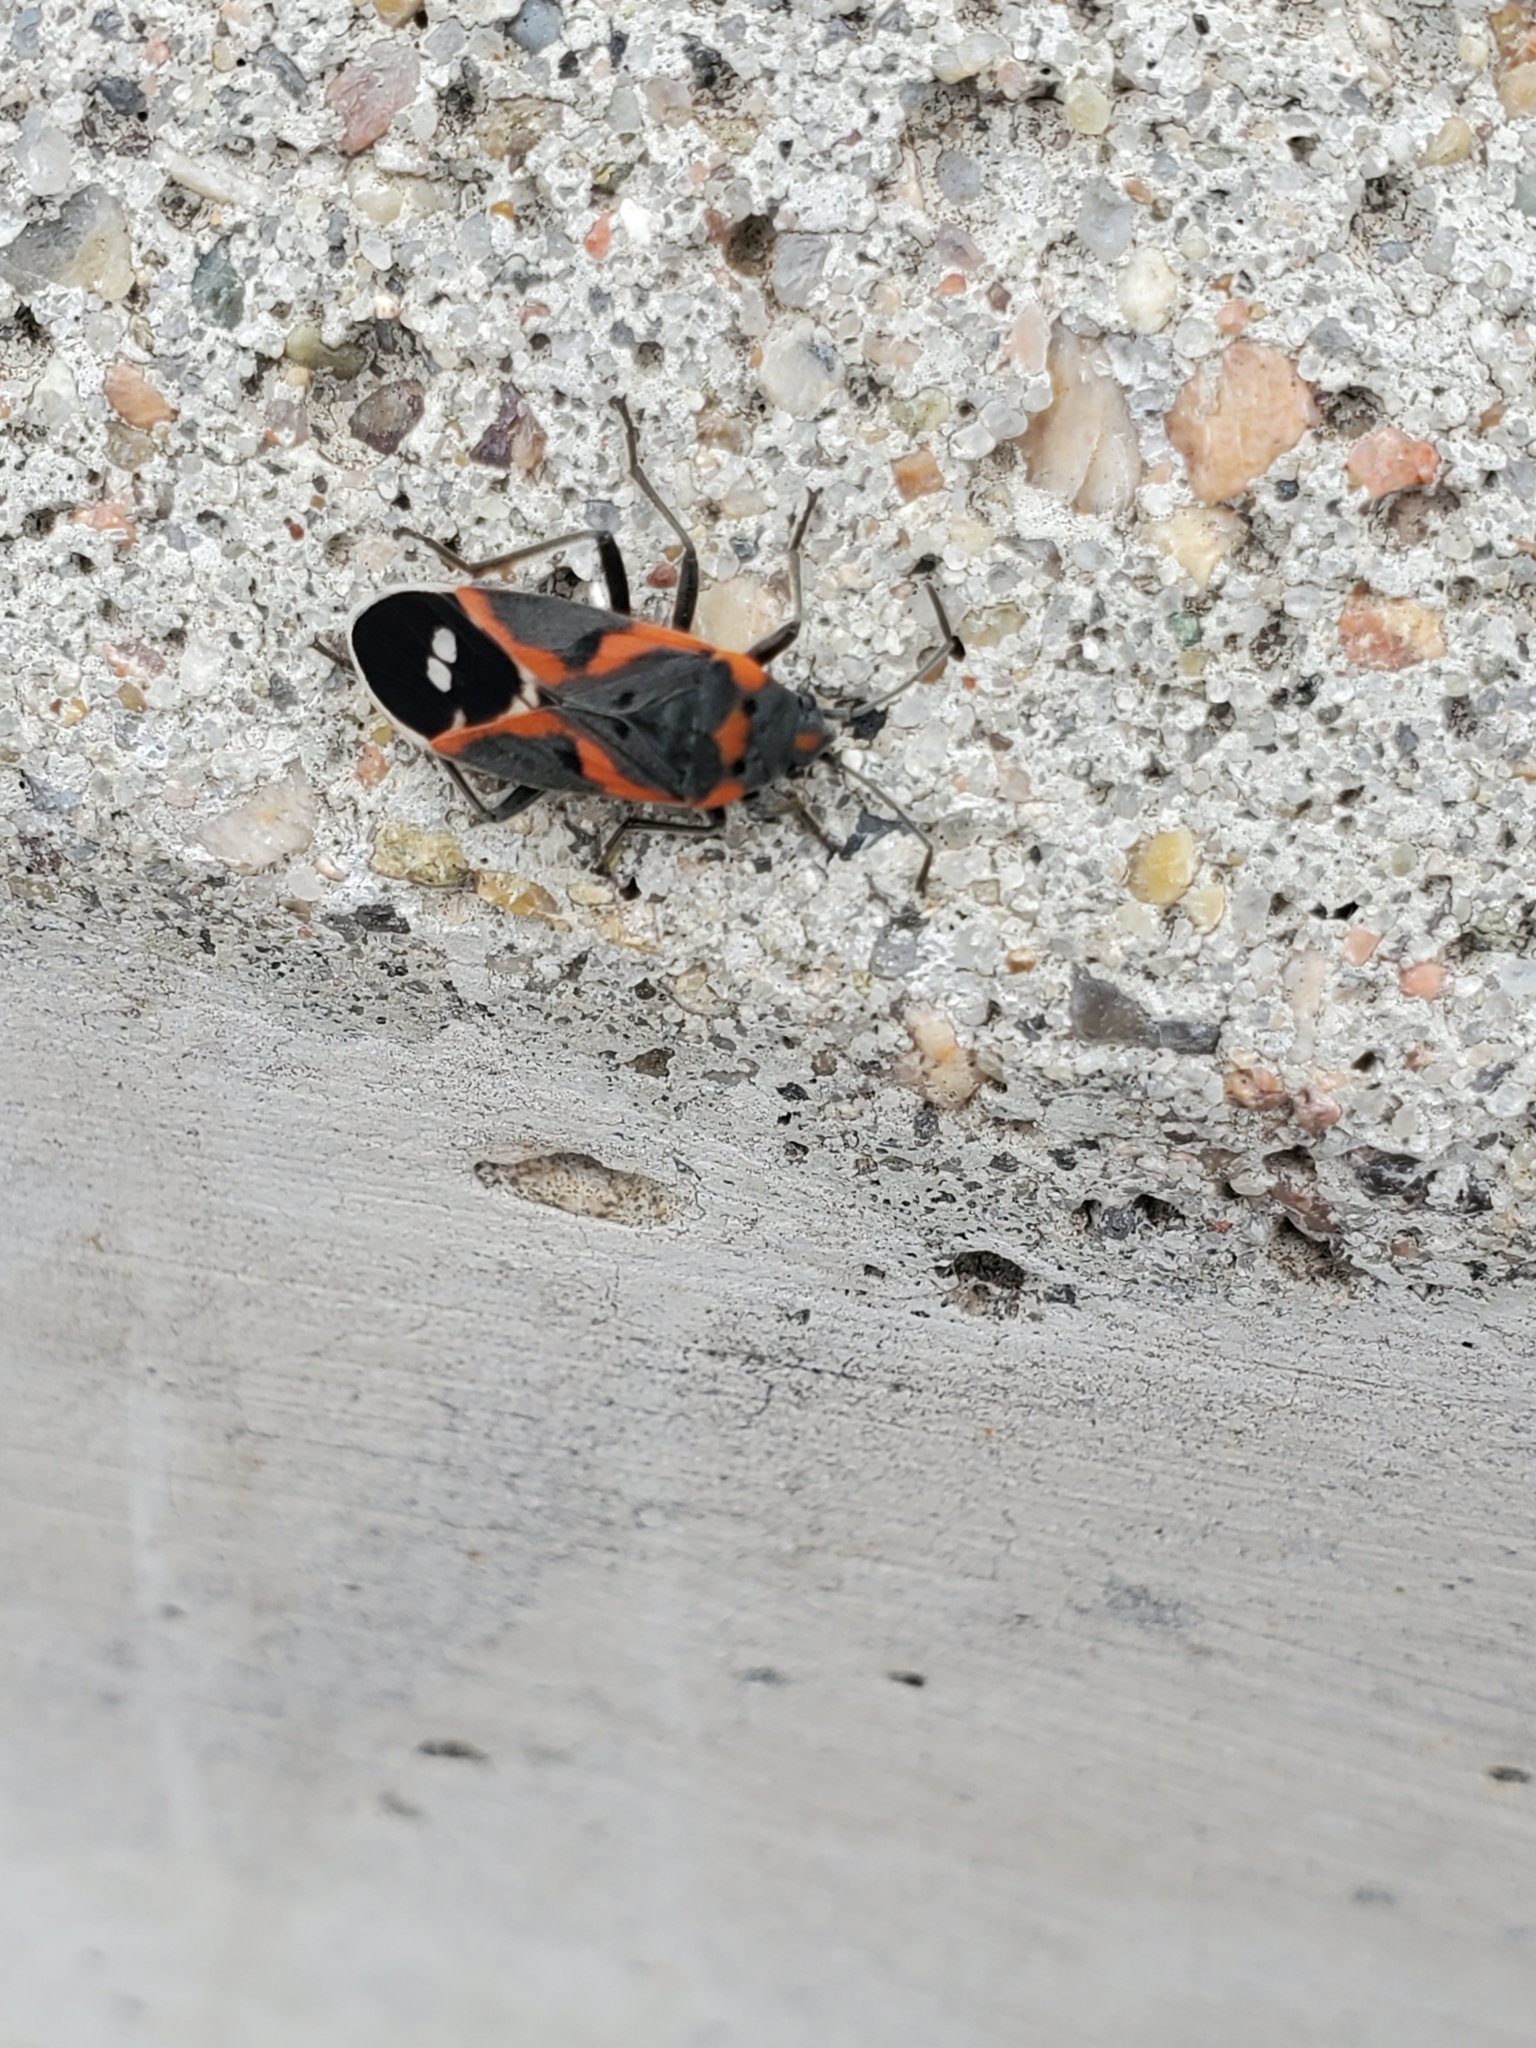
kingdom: Animalia
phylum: Arthropoda
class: Insecta
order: Hemiptera
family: Lygaeidae
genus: Lygaeus
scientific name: Lygaeus kalmii
